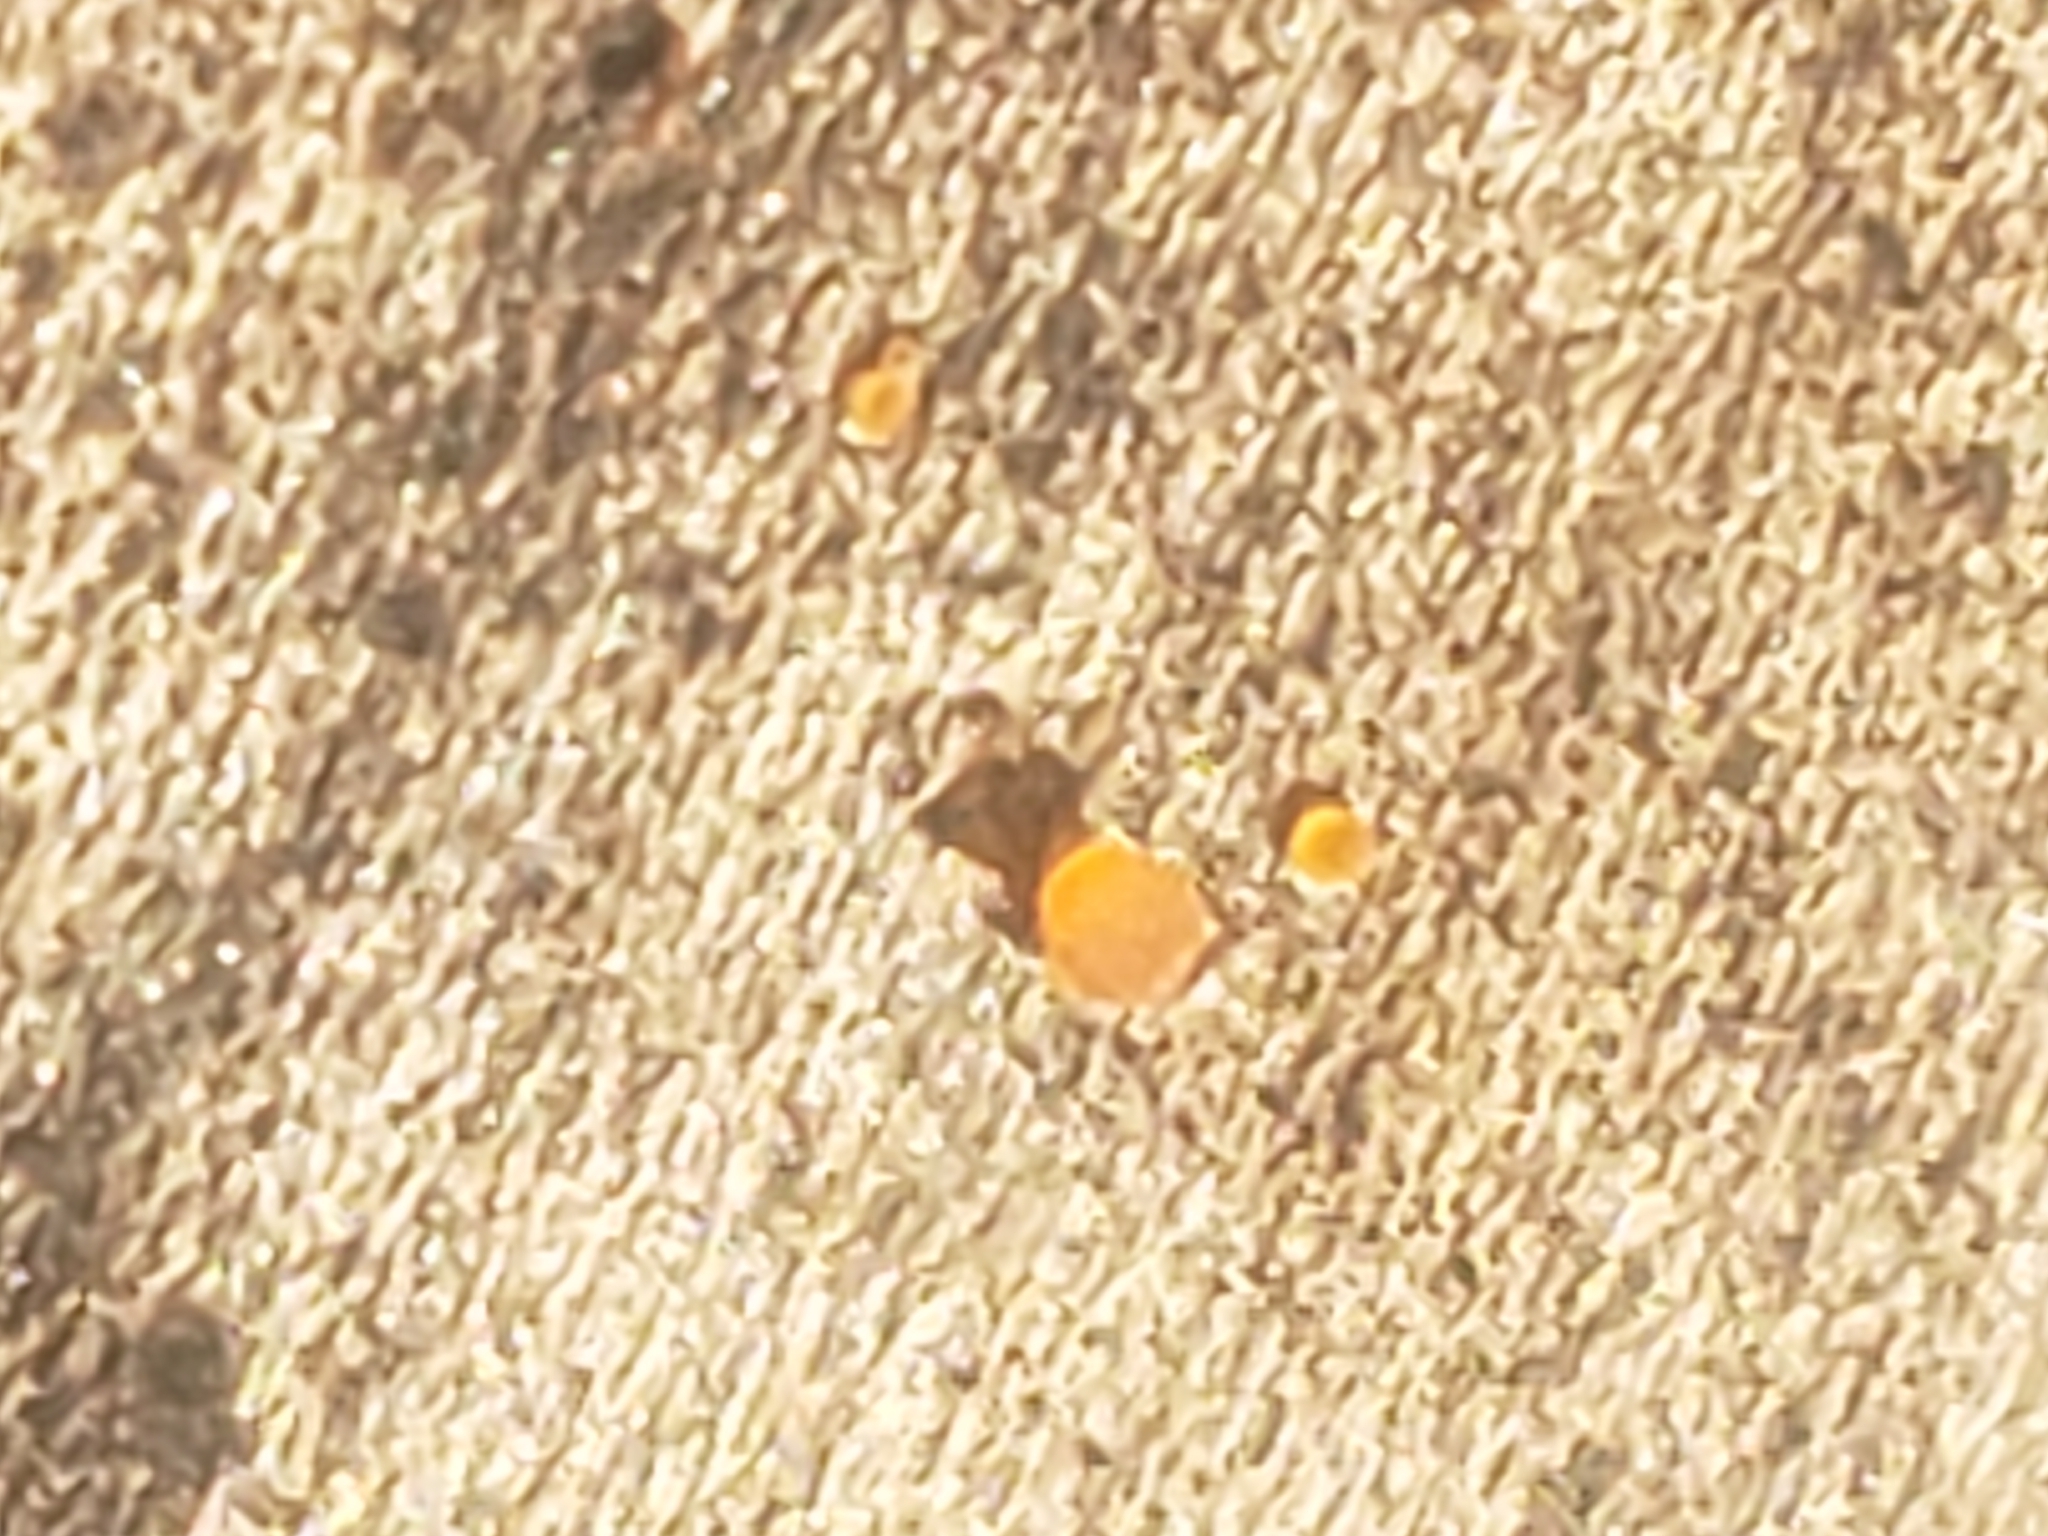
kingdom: Fungi
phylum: Ascomycota
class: Orbiliomycetes
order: Orbiliales
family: Orbiliaceae
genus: Orbilia
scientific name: Orbilia
